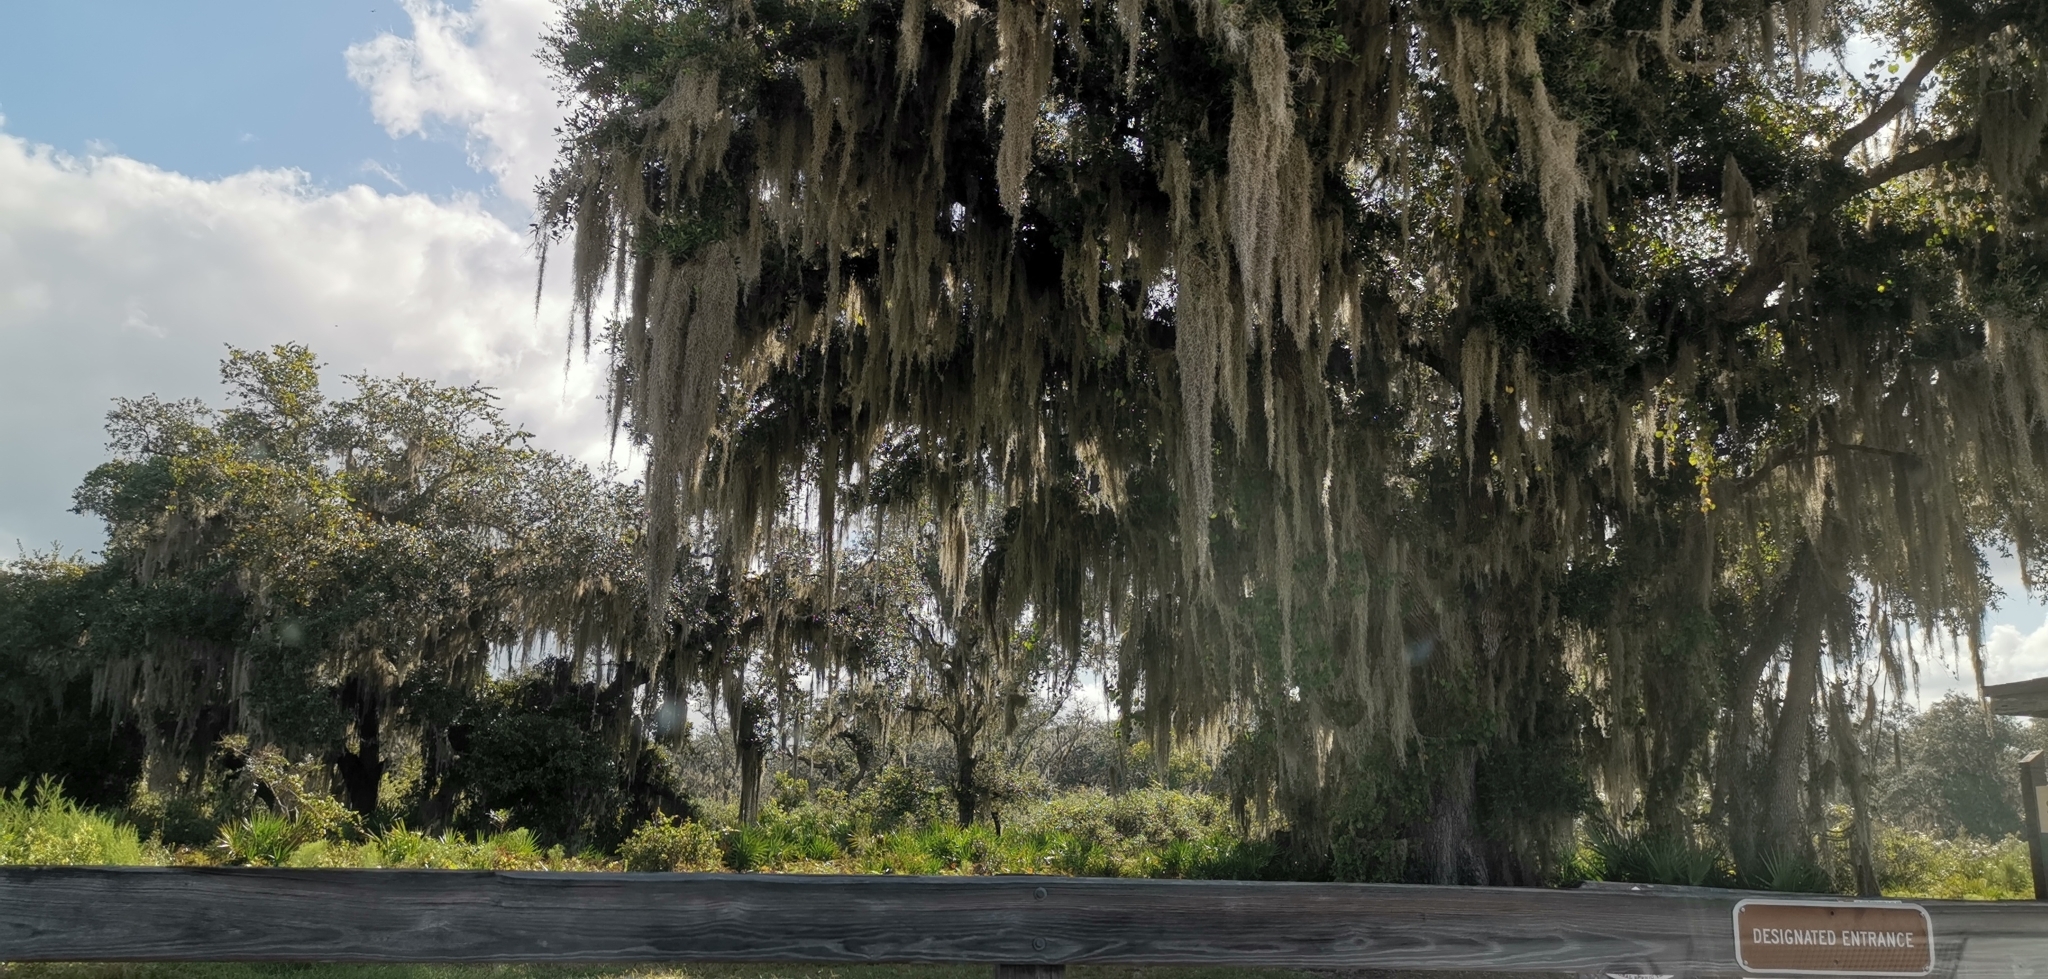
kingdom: Plantae
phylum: Tracheophyta
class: Liliopsida
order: Poales
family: Bromeliaceae
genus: Tillandsia
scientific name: Tillandsia usneoides
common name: Spanish moss
